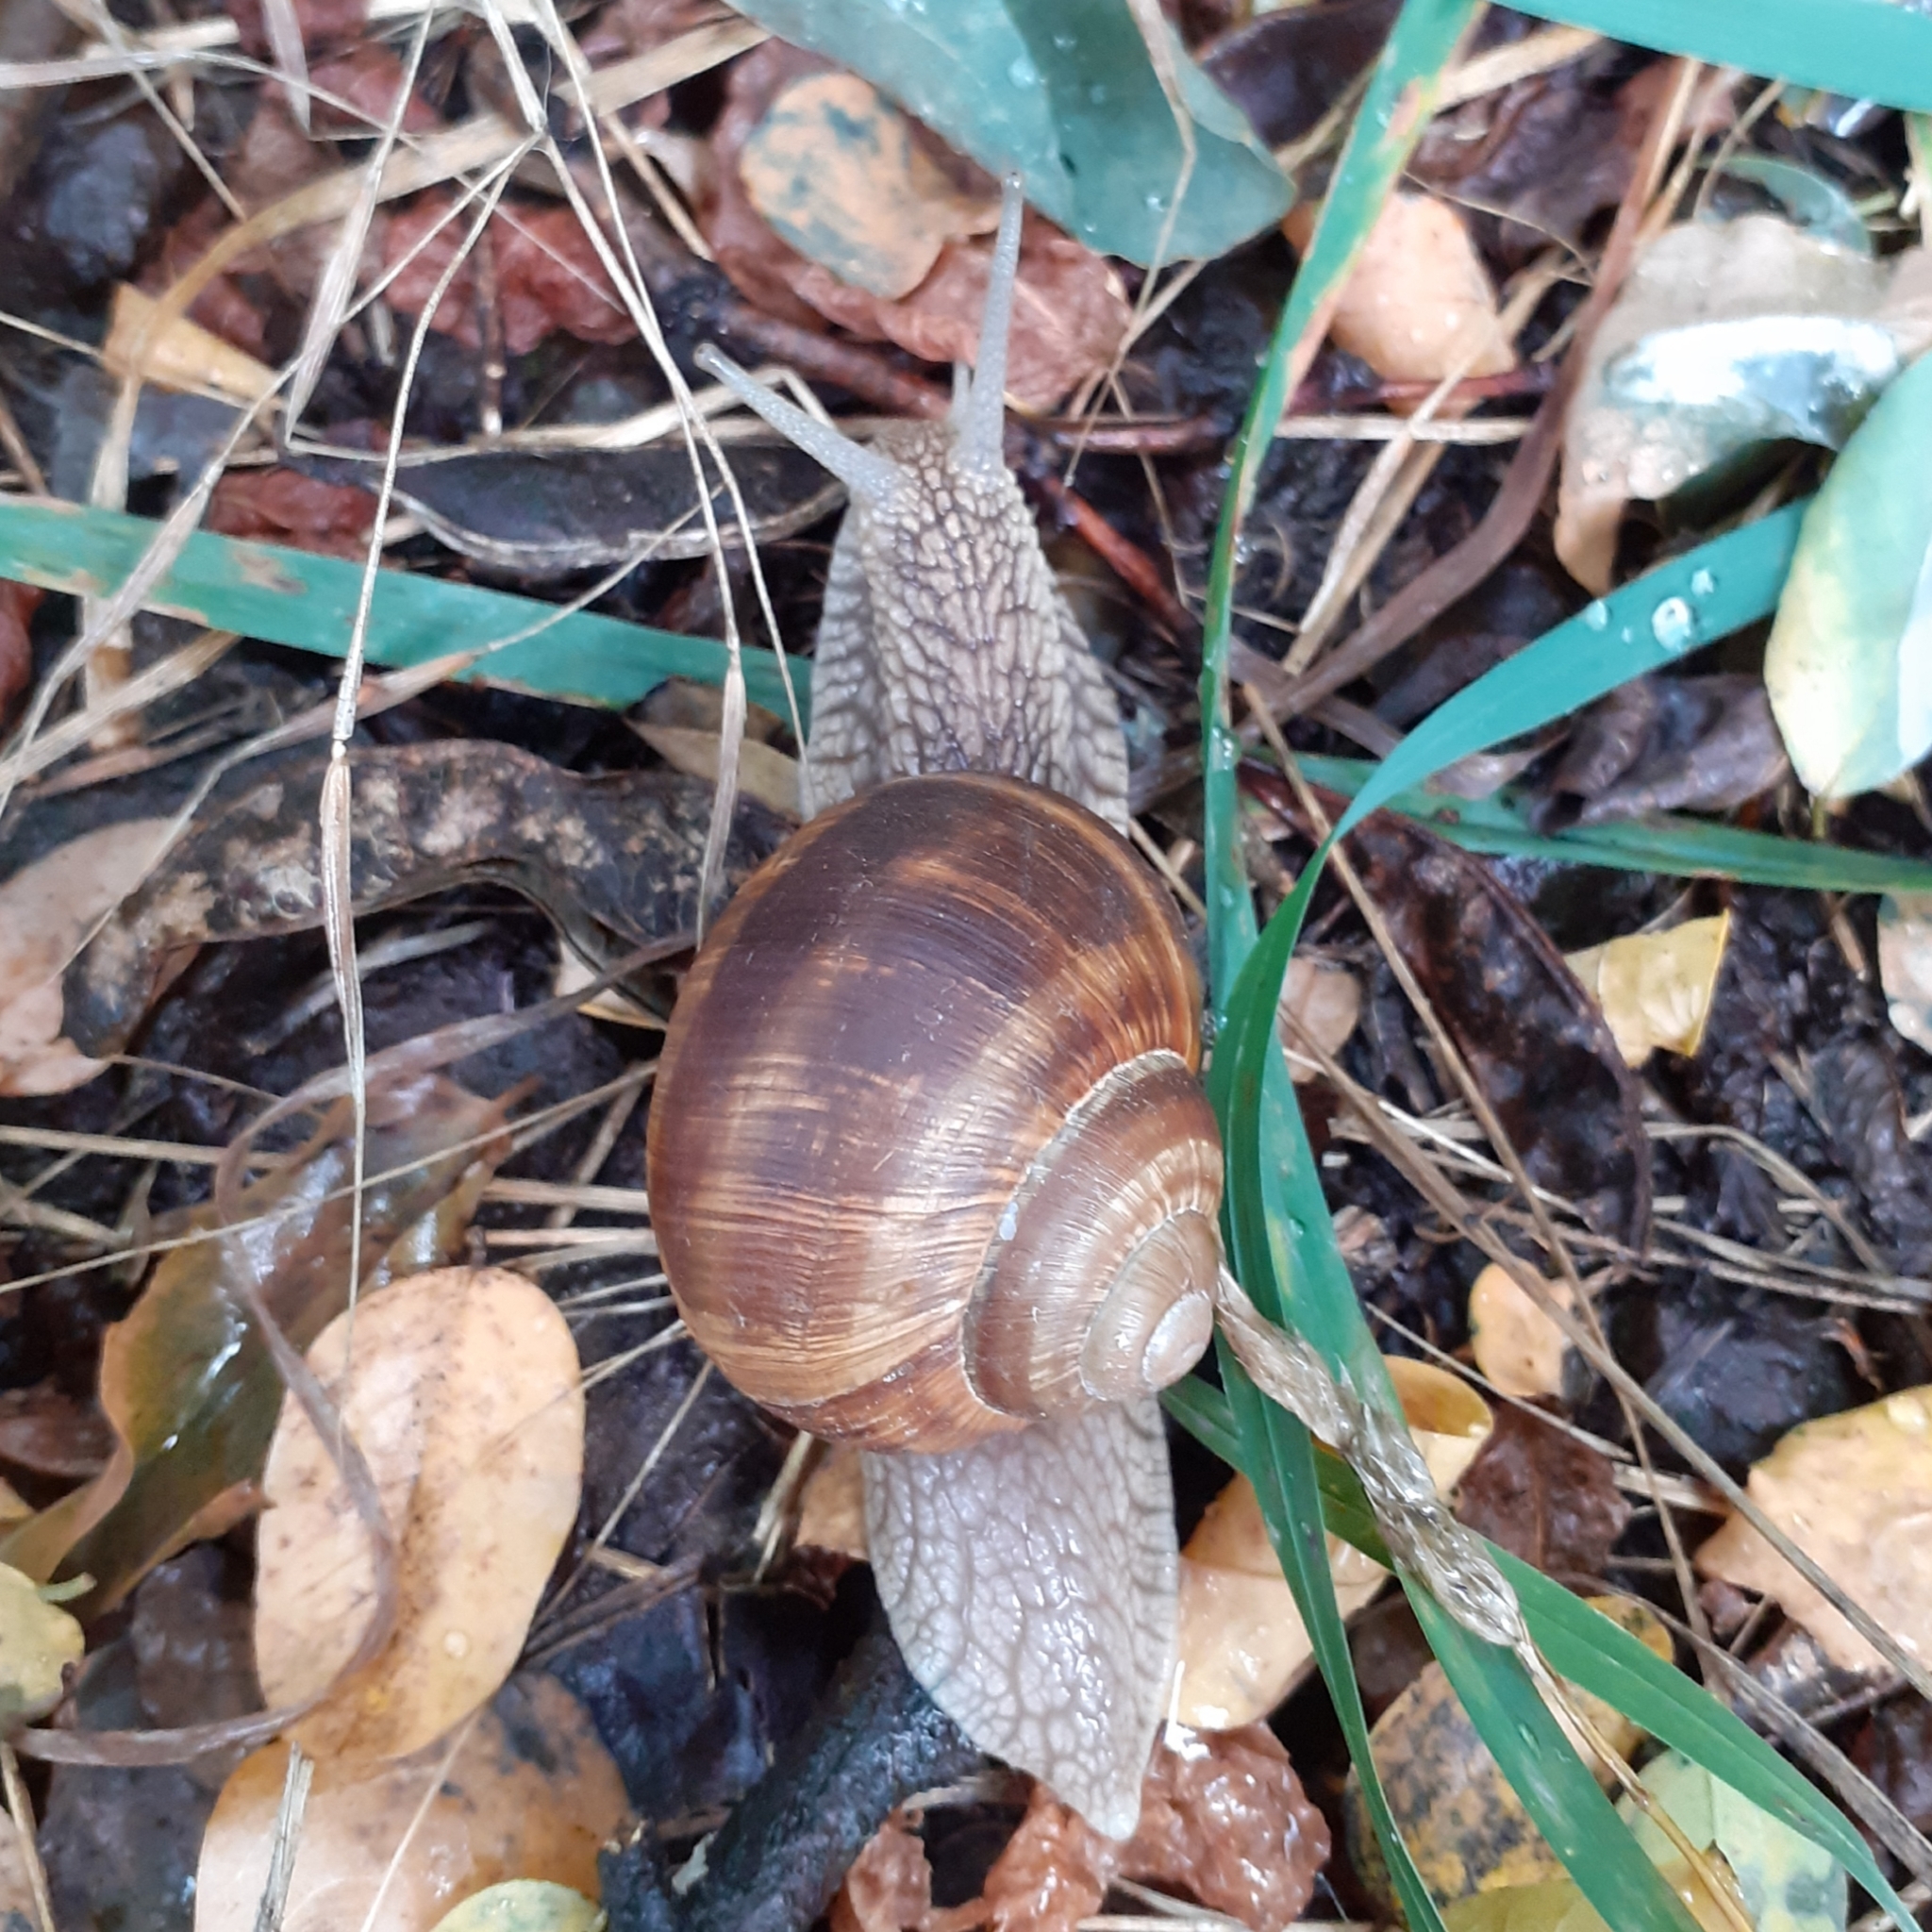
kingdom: Animalia
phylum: Mollusca
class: Gastropoda
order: Stylommatophora
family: Helicidae
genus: Helix
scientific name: Helix pomatia
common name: Roman snail
